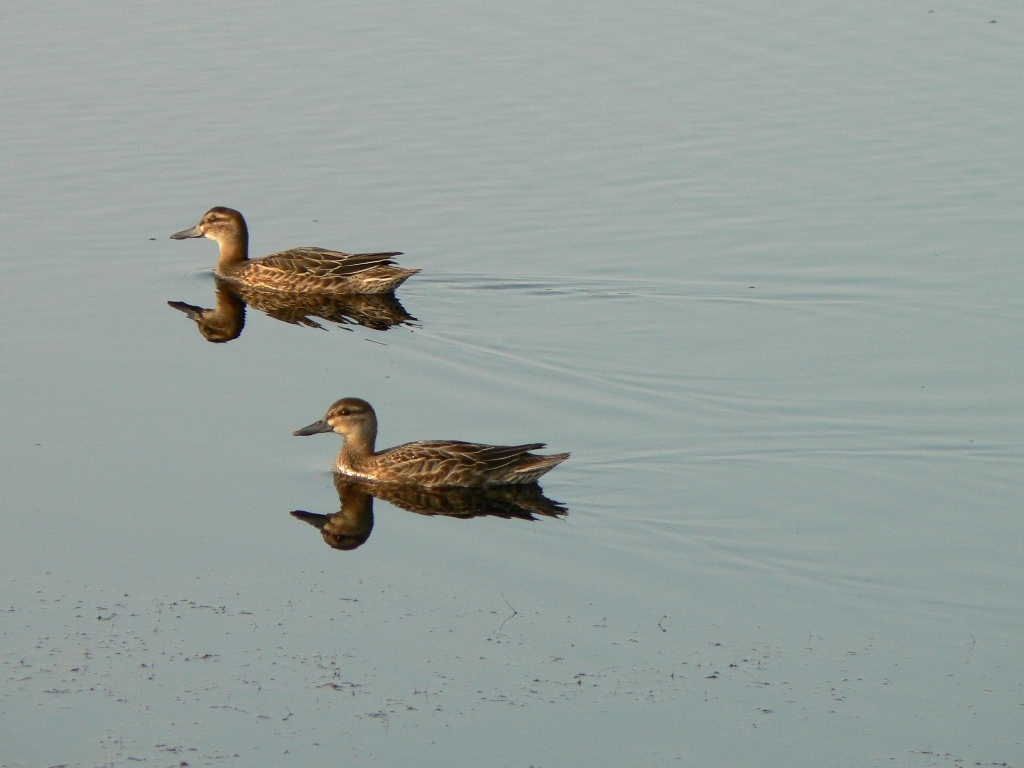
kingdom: Animalia
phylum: Chordata
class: Aves
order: Anseriformes
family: Anatidae
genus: Spatula
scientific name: Spatula querquedula
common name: Garganey
